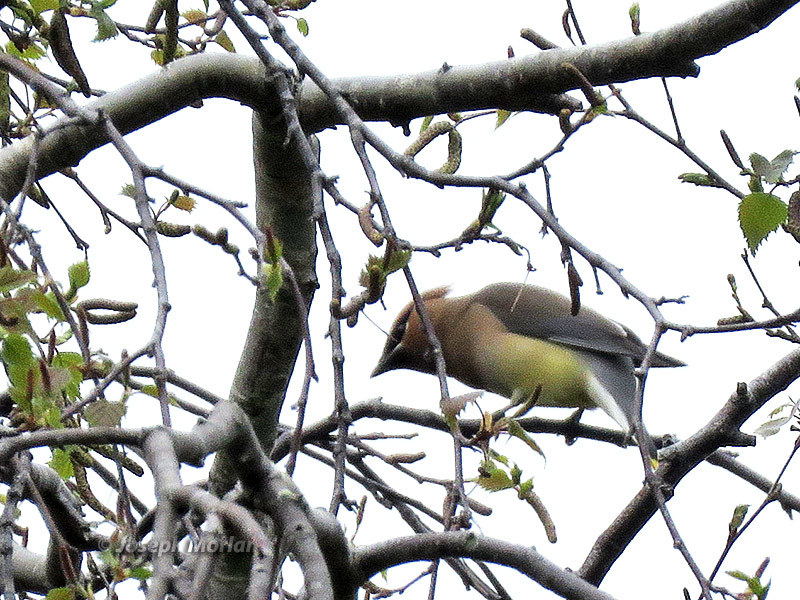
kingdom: Animalia
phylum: Chordata
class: Aves
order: Passeriformes
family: Bombycillidae
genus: Bombycilla
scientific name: Bombycilla cedrorum
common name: Cedar waxwing
